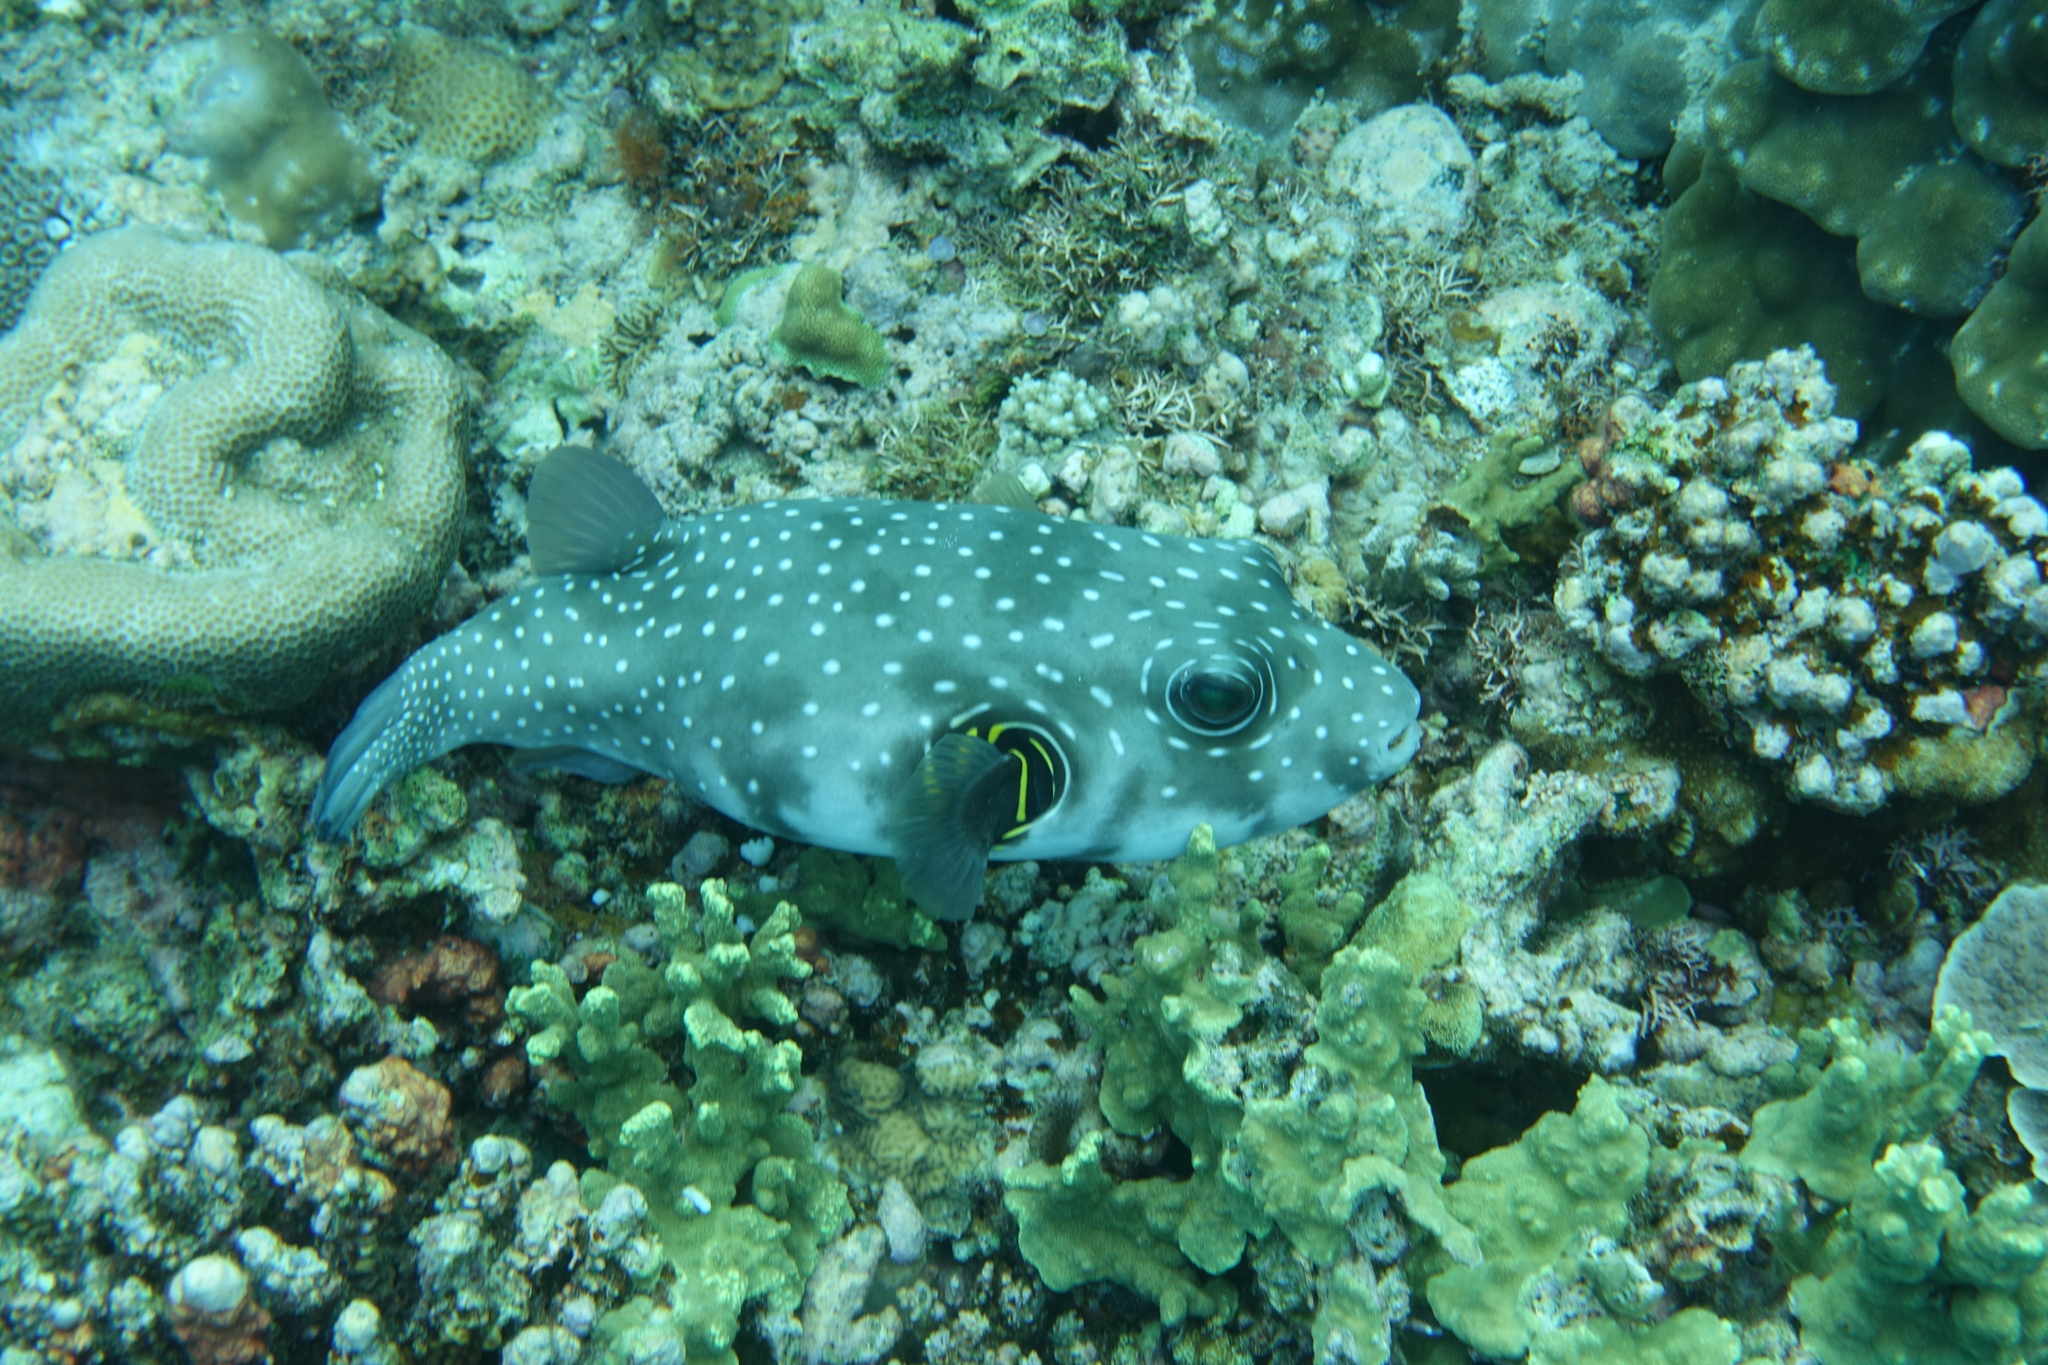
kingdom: Animalia
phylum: Chordata
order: Tetraodontiformes
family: Tetraodontidae
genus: Arothron
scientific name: Arothron hispidus
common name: Stripebelly puffer
